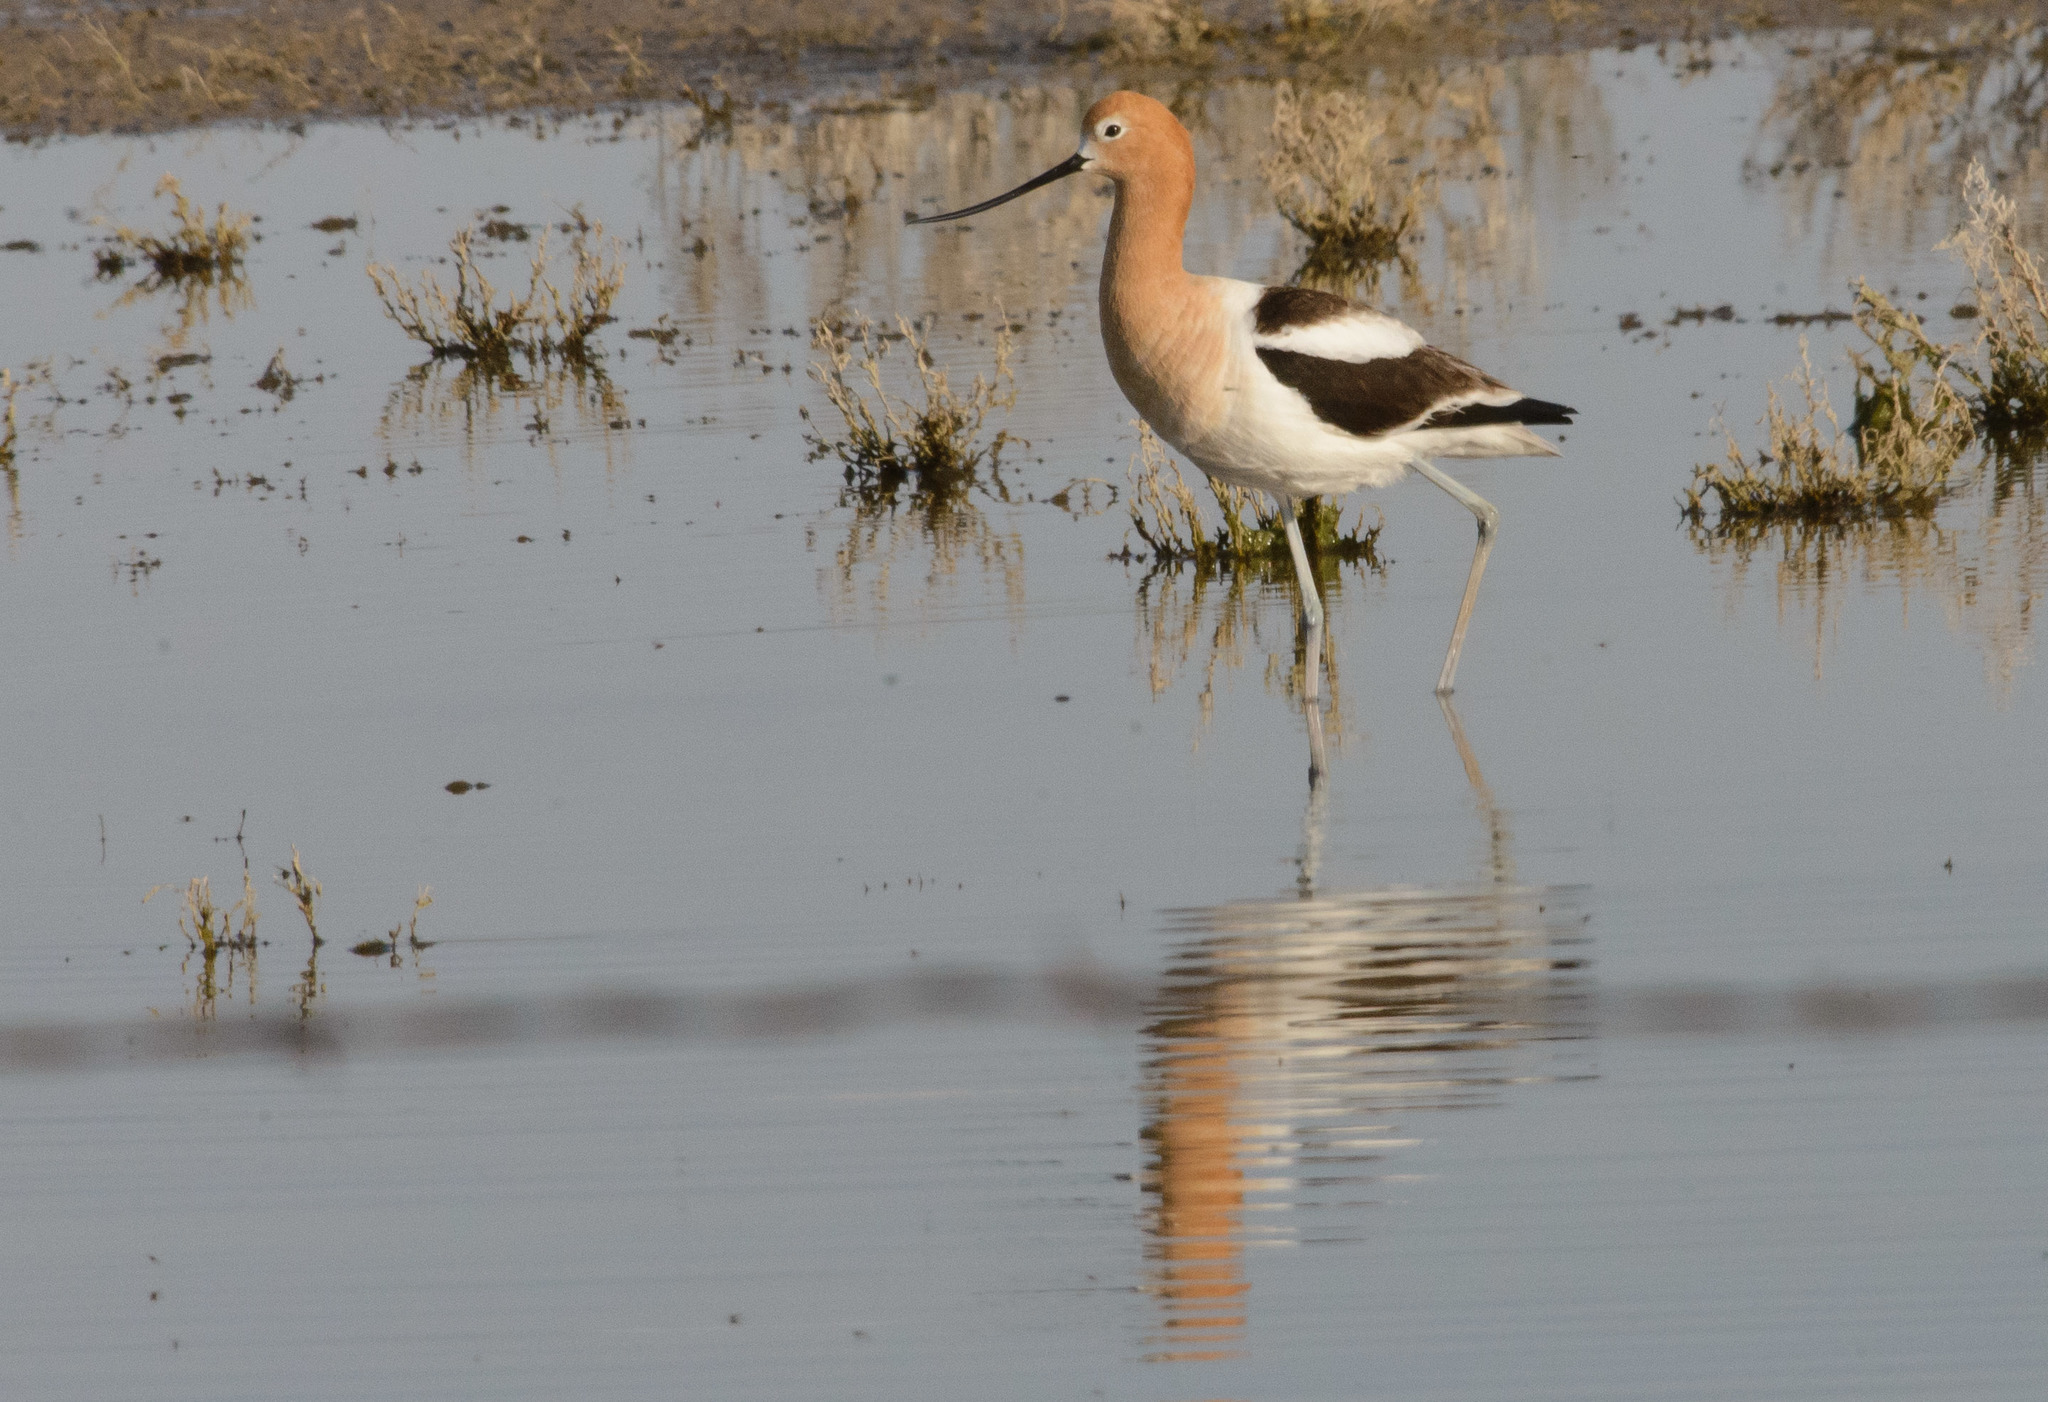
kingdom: Animalia
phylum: Chordata
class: Aves
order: Charadriiformes
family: Recurvirostridae
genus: Recurvirostra
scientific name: Recurvirostra americana
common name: American avocet
